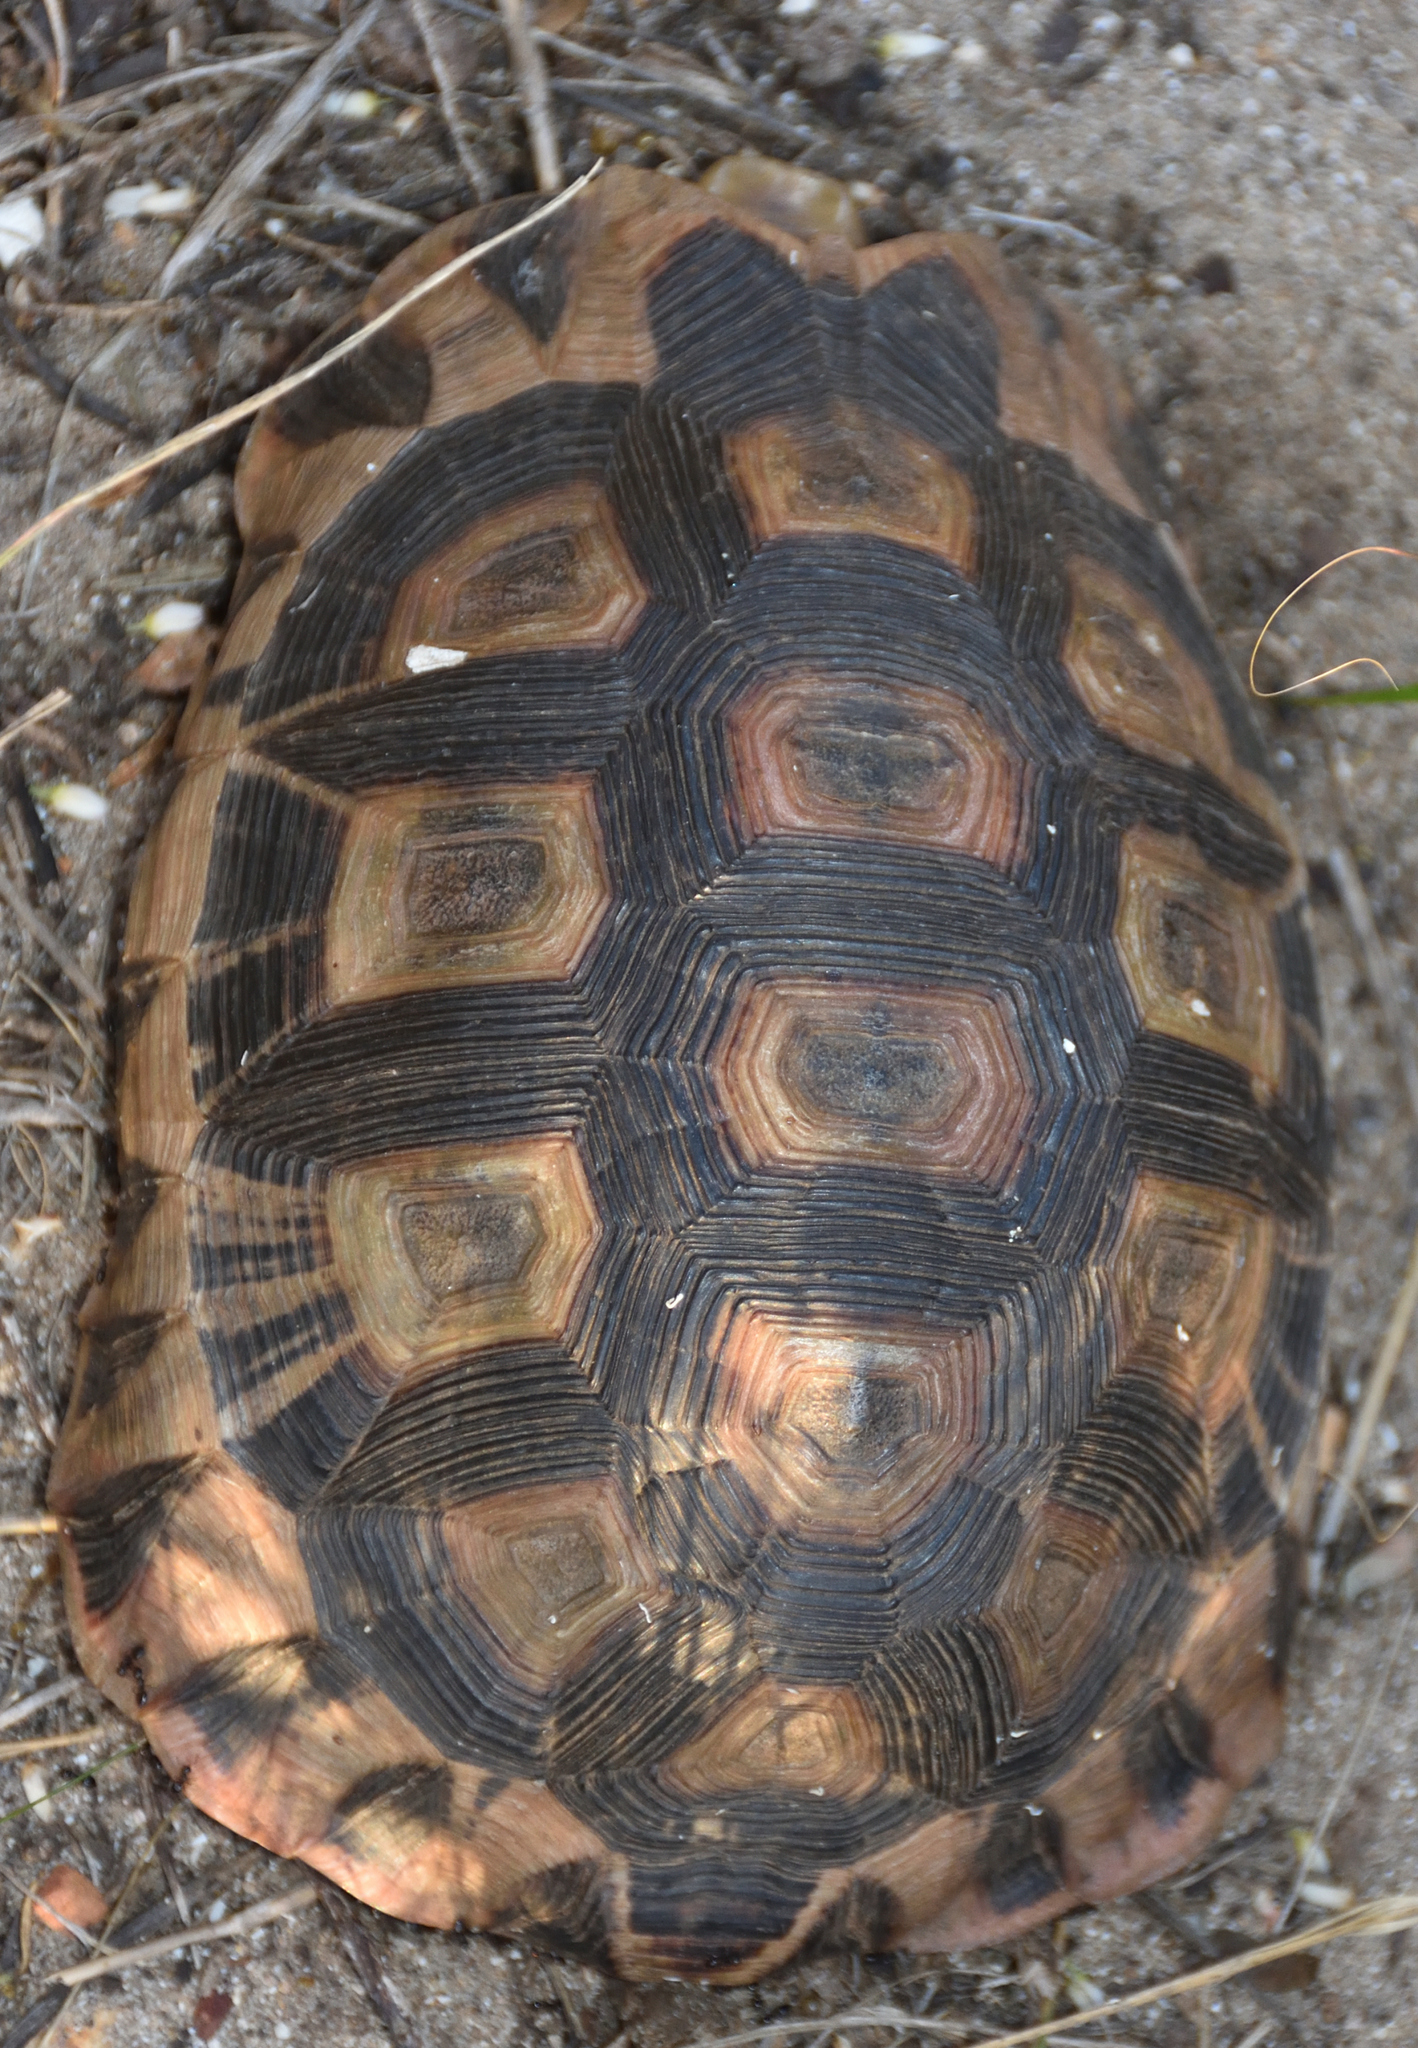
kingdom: Animalia
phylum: Chordata
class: Testudines
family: Testudinidae
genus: Chersina
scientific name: Chersina angulata
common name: South african bowsprit tortoise
